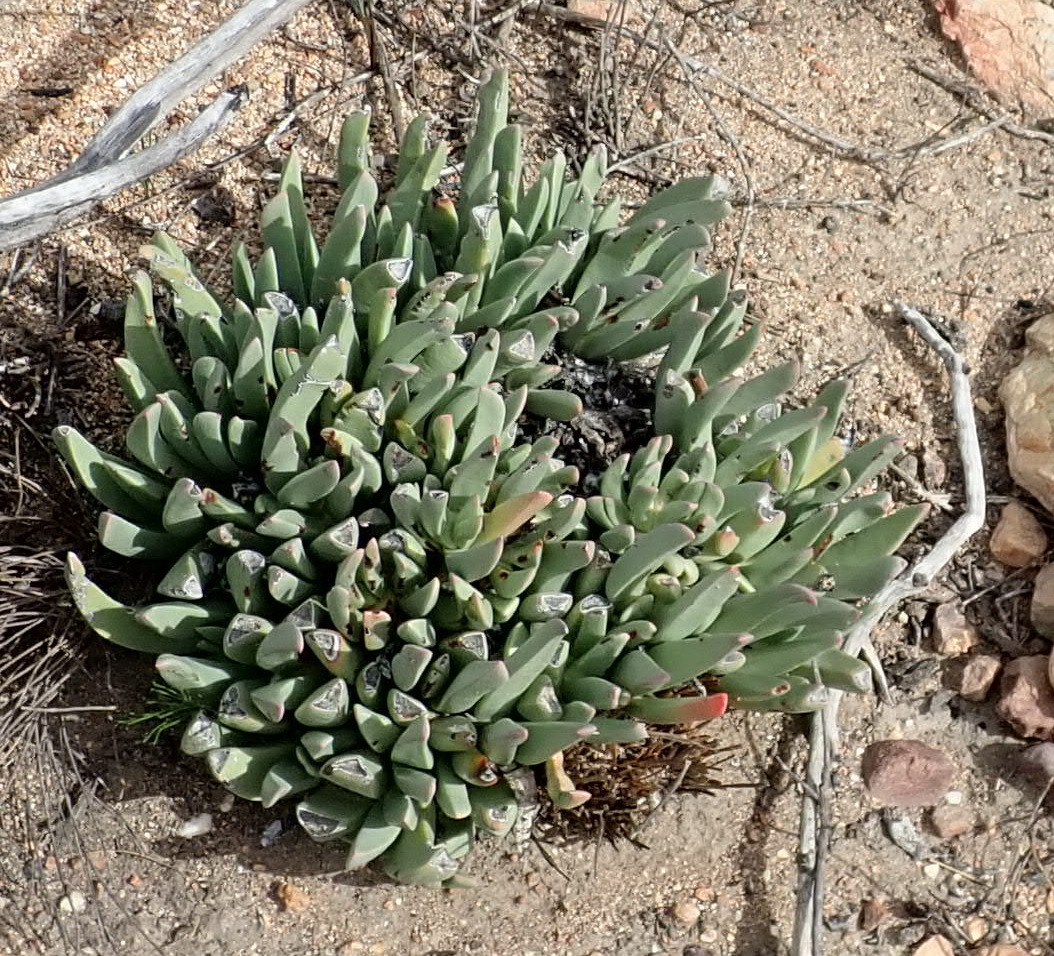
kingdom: Plantae
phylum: Tracheophyta
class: Magnoliopsida
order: Caryophyllales
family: Aizoaceae
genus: Machairophyllum
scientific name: Machairophyllum albidum
